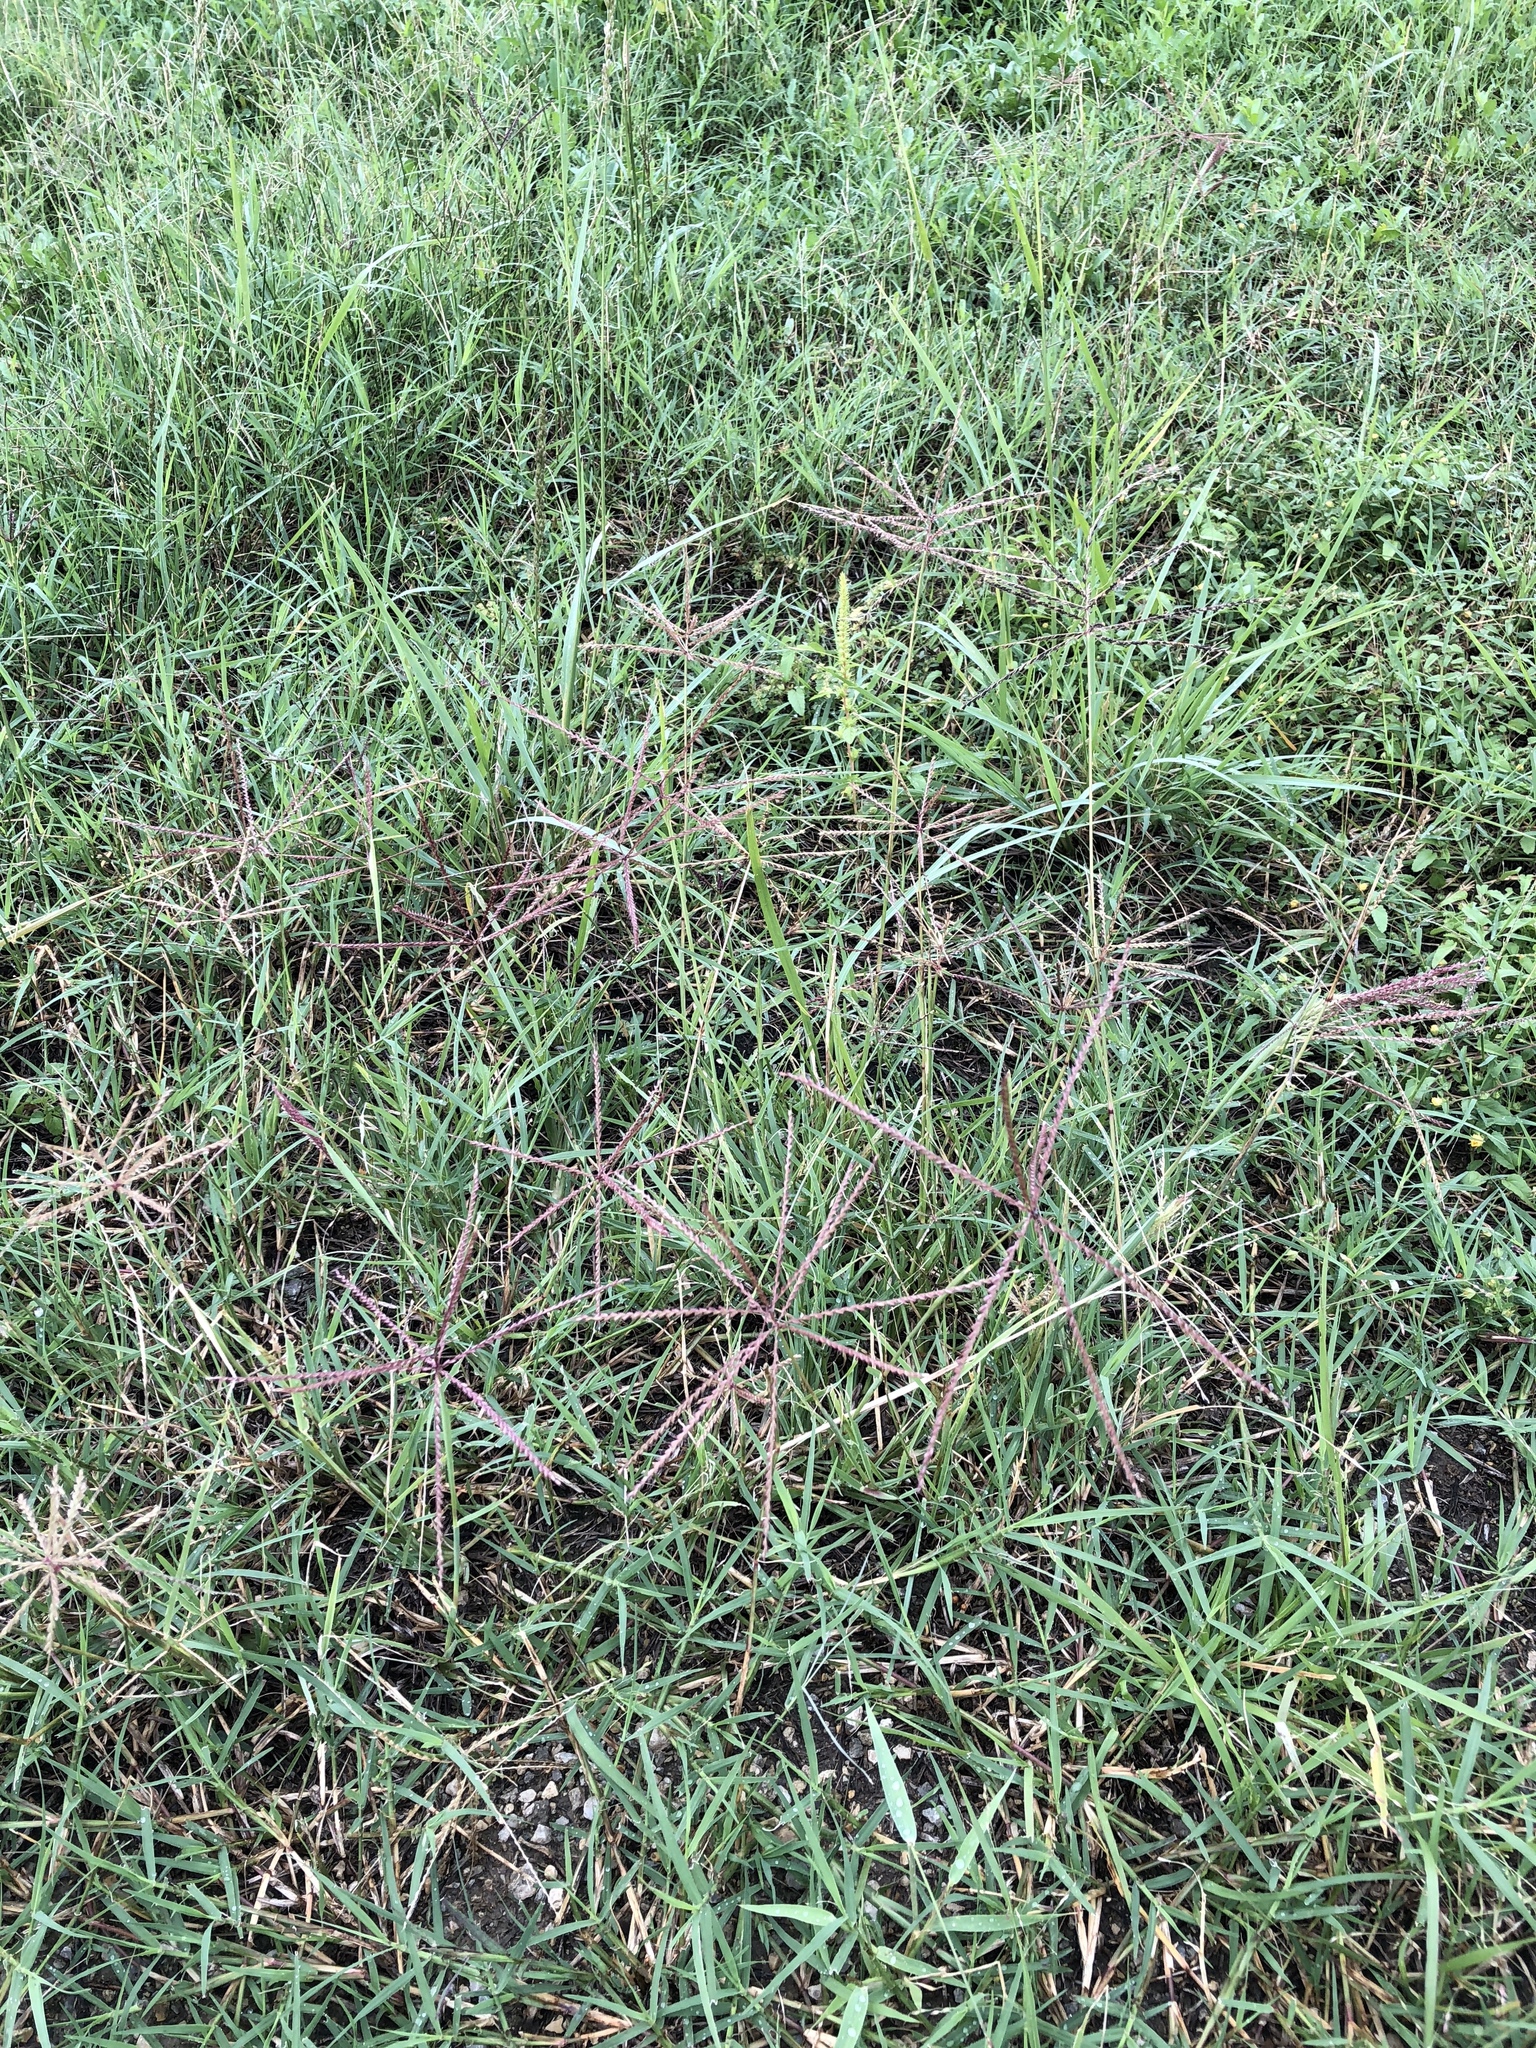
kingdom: Plantae
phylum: Tracheophyta
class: Liliopsida
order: Poales
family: Poaceae
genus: Chloris
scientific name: Chloris verticillata
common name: Tumble windmill grass
